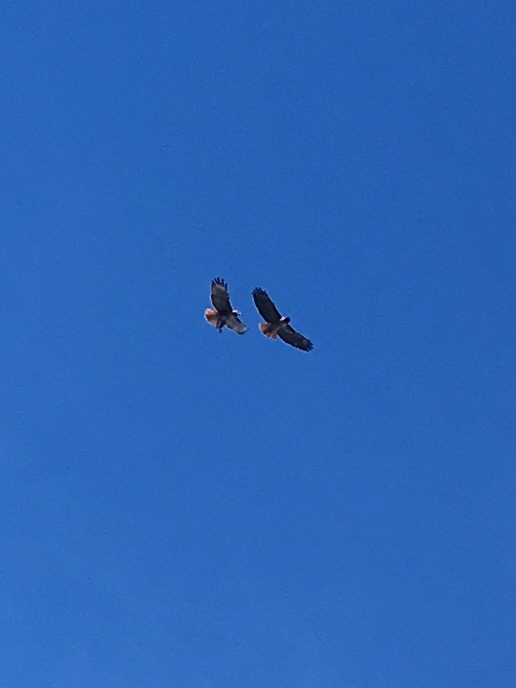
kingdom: Animalia
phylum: Chordata
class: Aves
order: Accipitriformes
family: Accipitridae
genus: Buteo
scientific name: Buteo jamaicensis
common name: Red-tailed hawk
